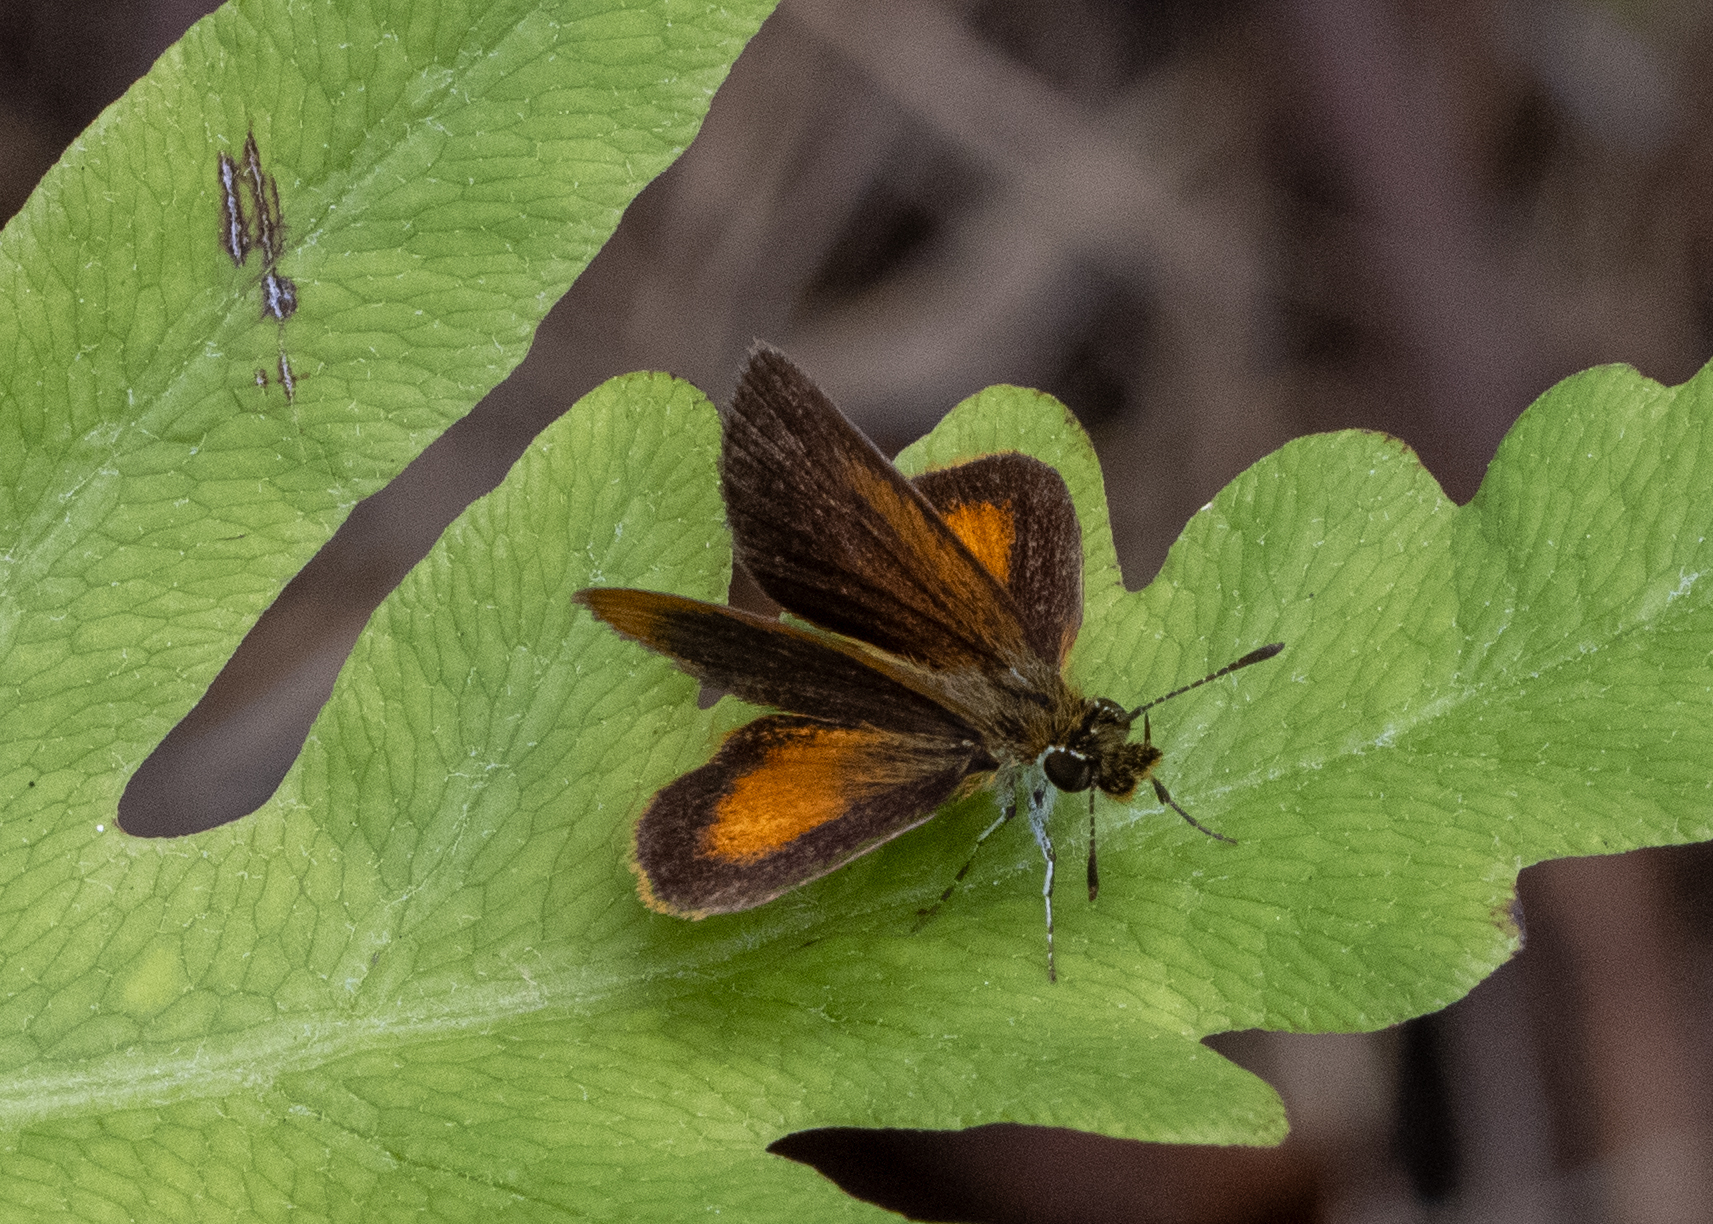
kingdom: Animalia
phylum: Arthropoda
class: Insecta
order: Lepidoptera
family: Hesperiidae
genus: Ancyloxypha
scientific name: Ancyloxypha numitor
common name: Least skipper
